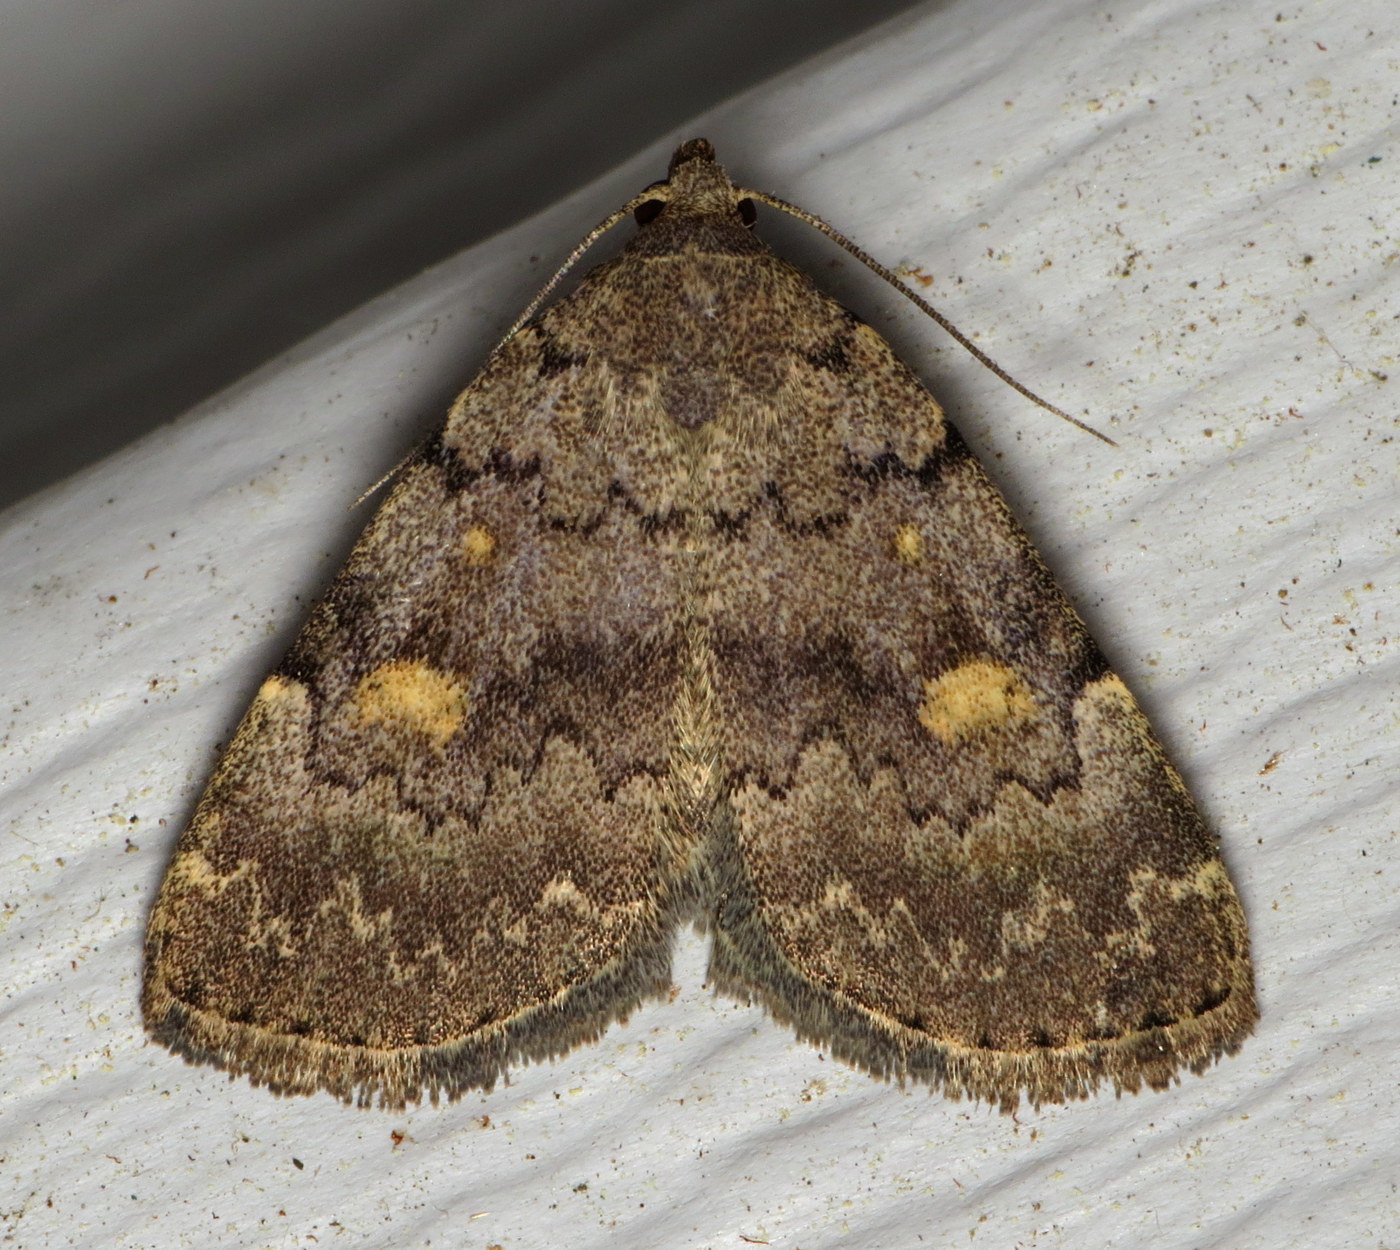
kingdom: Animalia
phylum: Arthropoda
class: Insecta
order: Lepidoptera
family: Erebidae
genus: Idia
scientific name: Idia aemula
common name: Common idia moth
